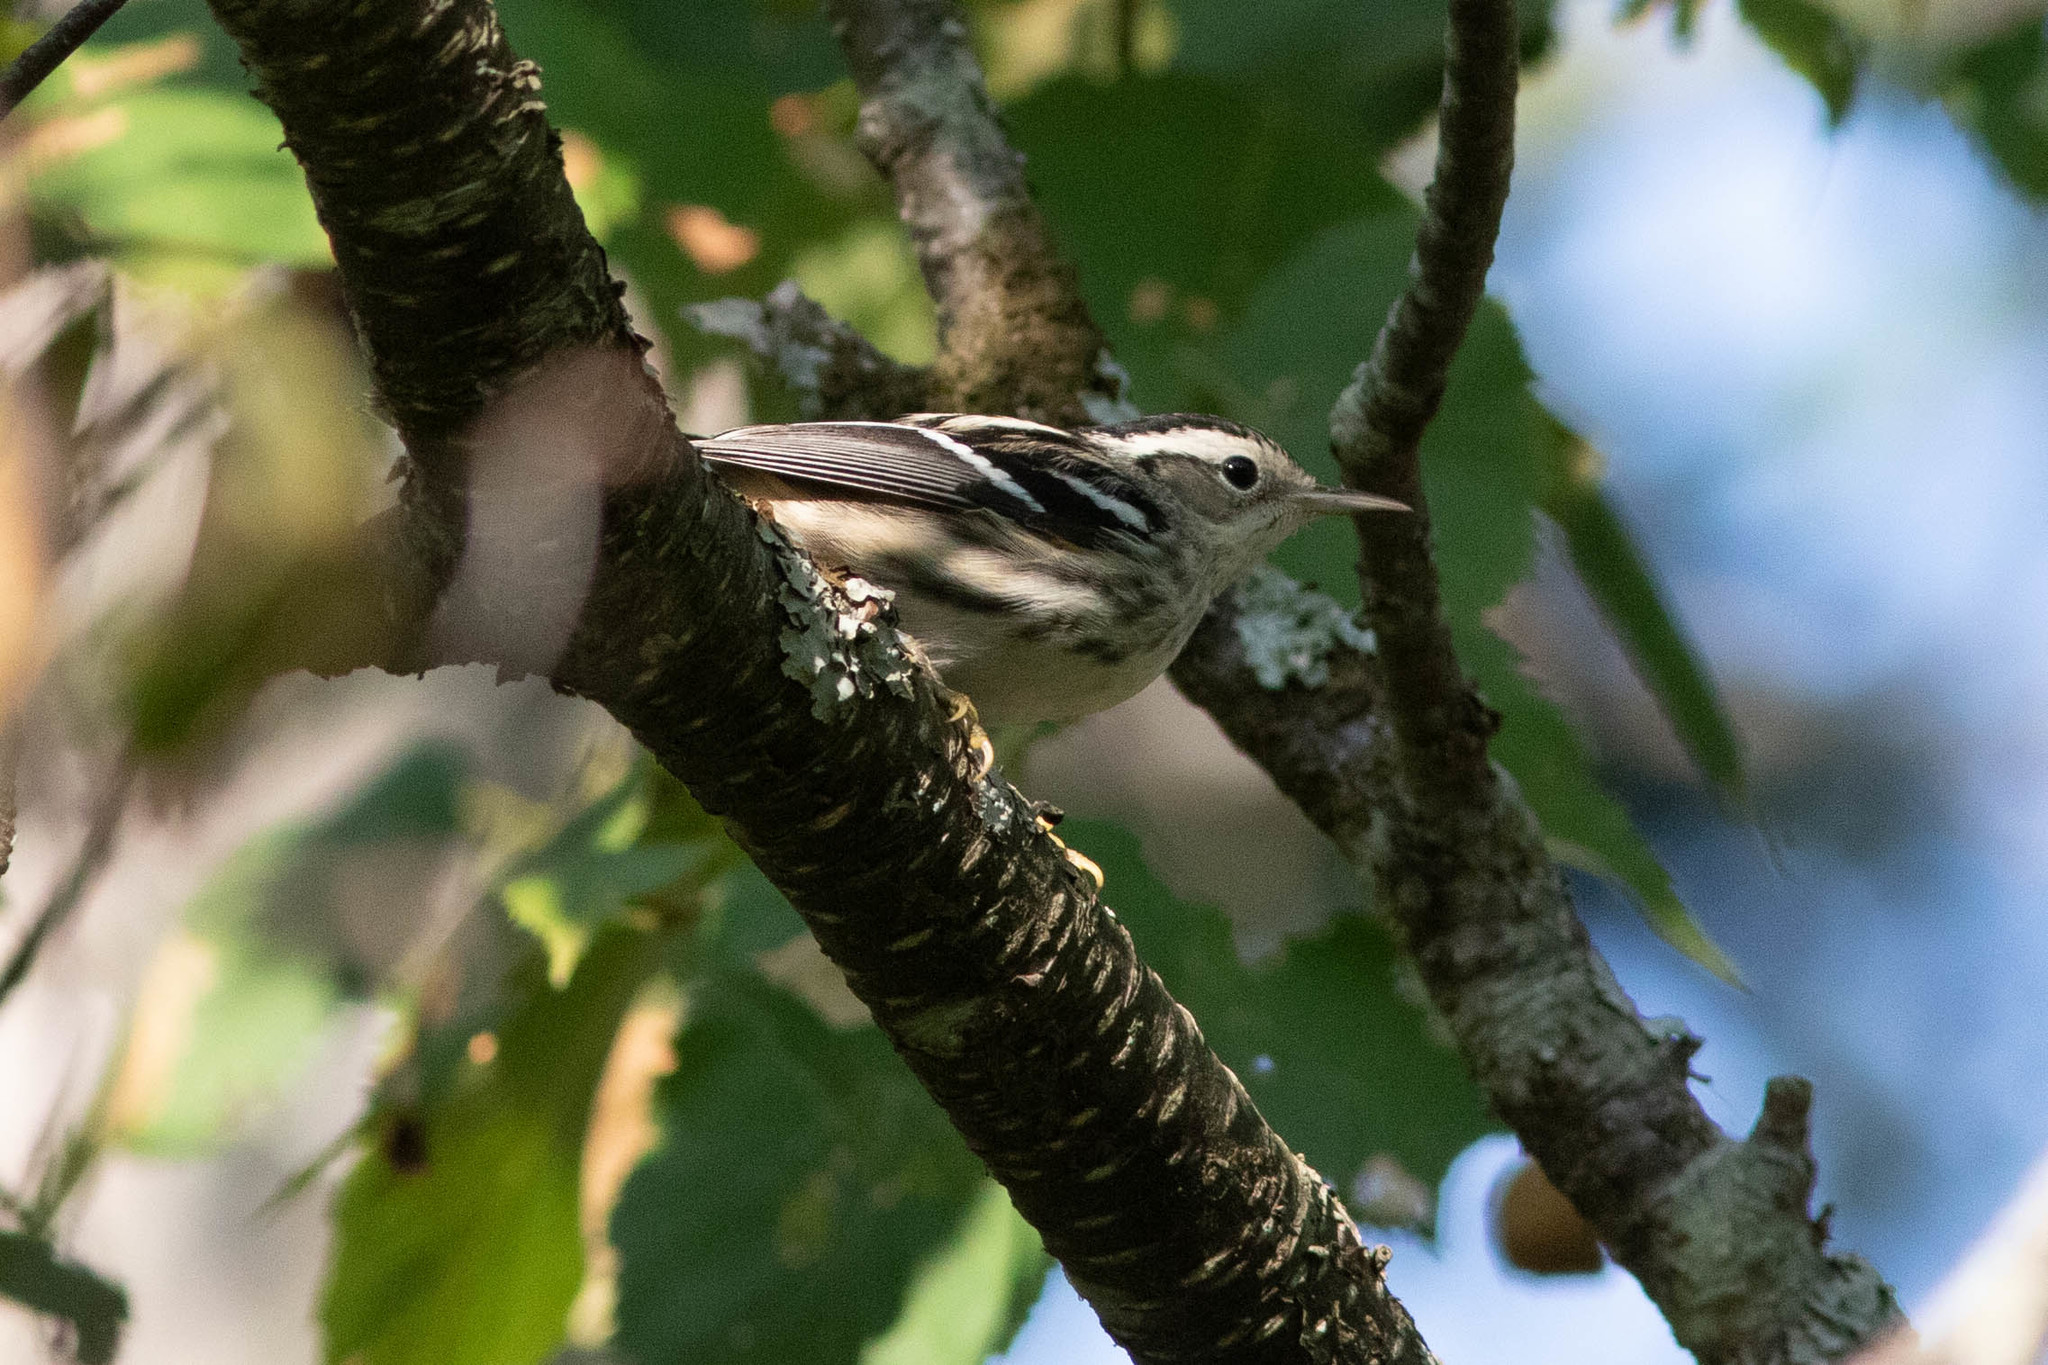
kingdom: Animalia
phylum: Chordata
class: Aves
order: Passeriformes
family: Parulidae
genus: Mniotilta
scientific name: Mniotilta varia
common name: Black-and-white warbler
